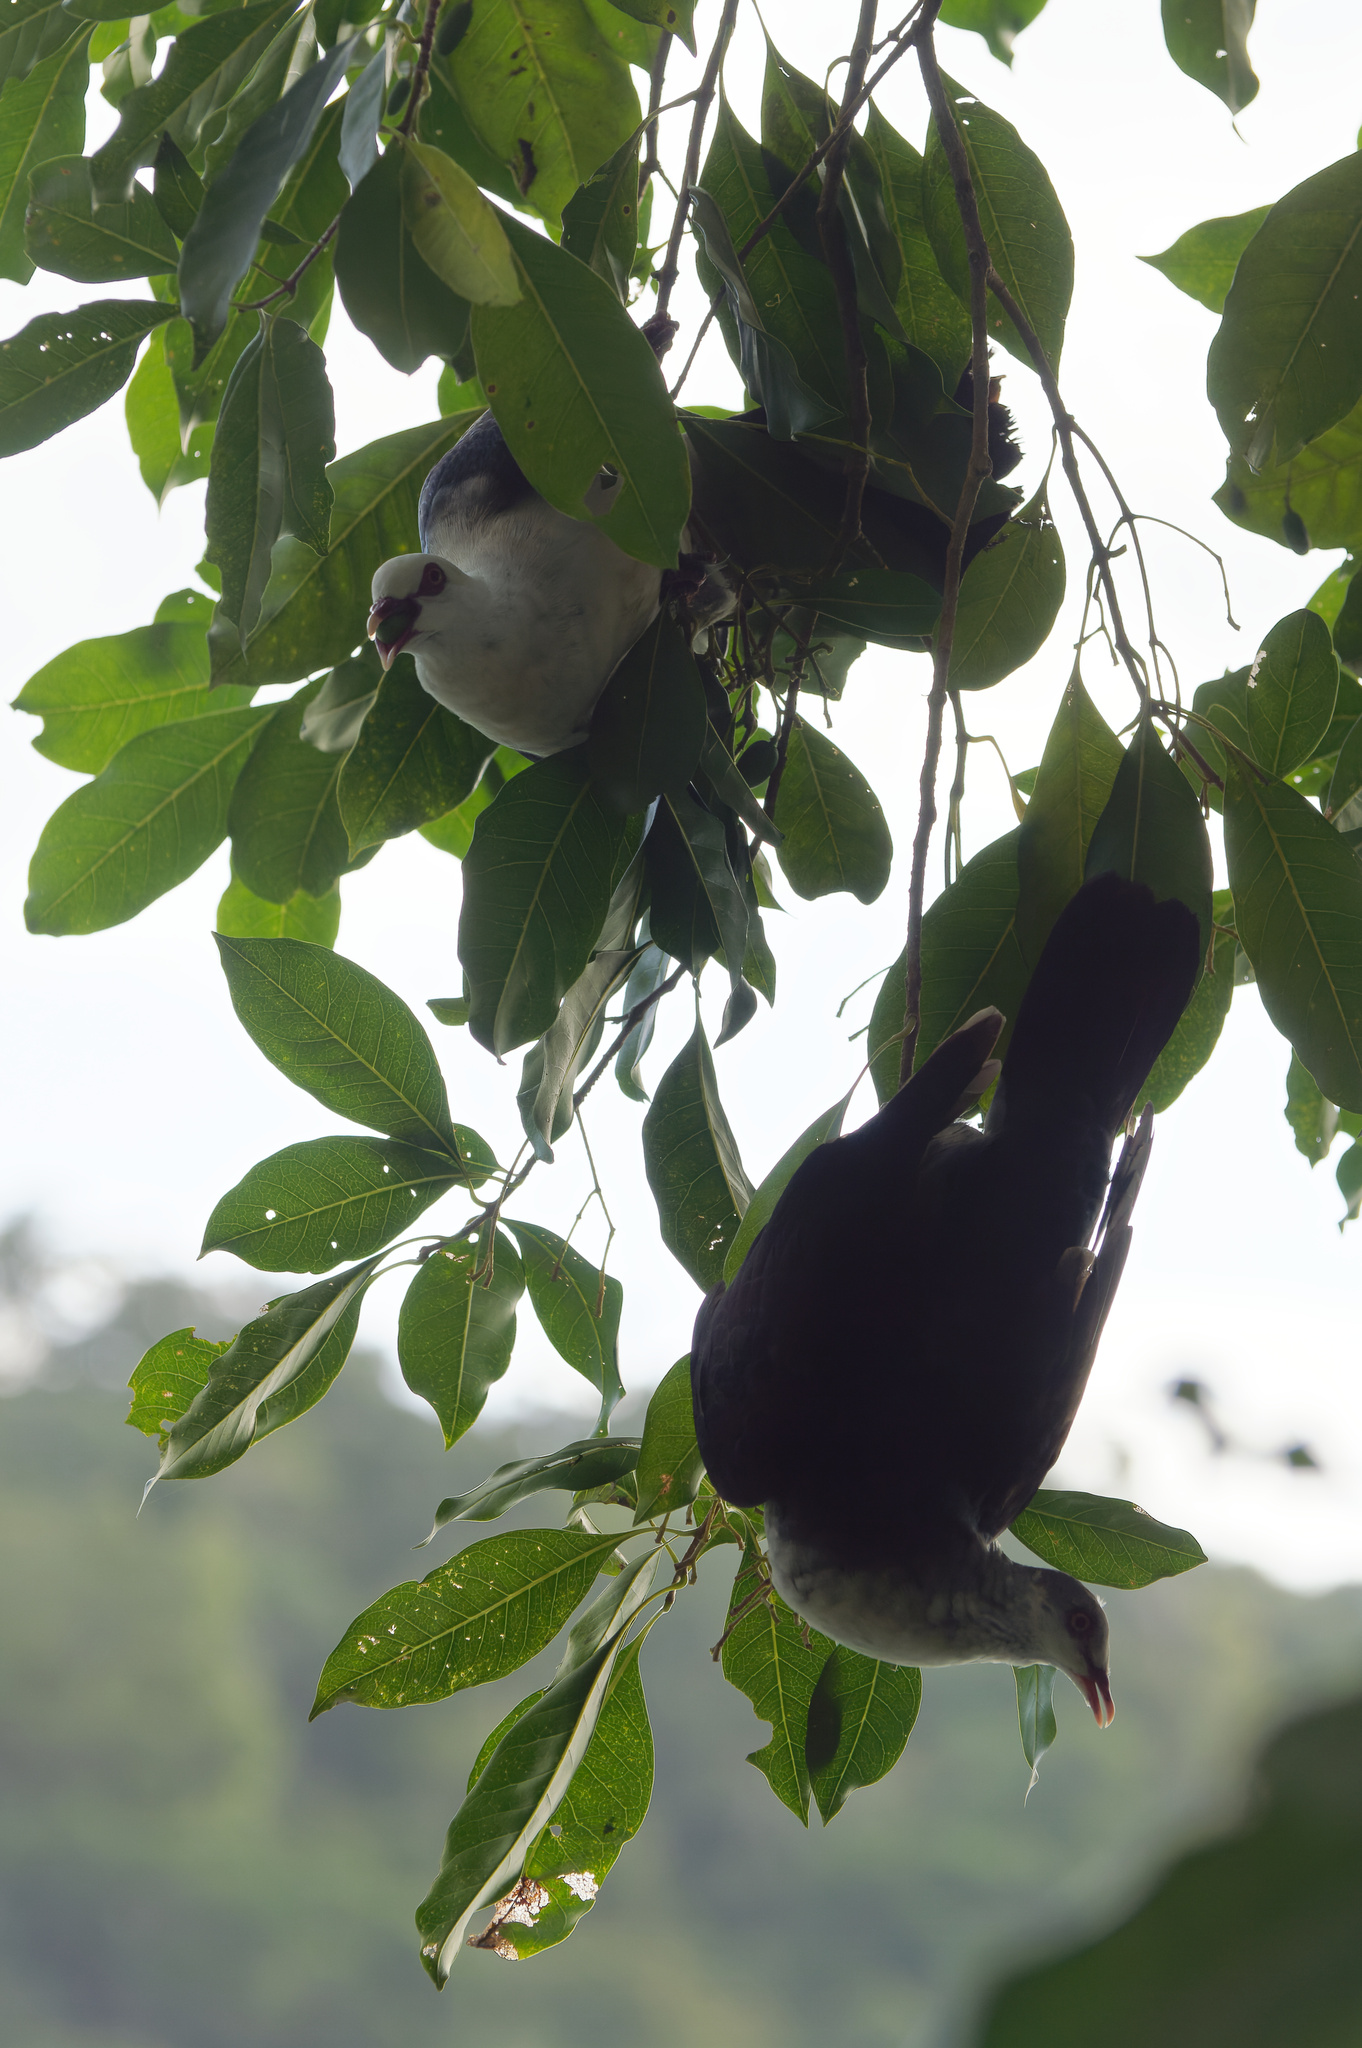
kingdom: Animalia
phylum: Chordata
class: Aves
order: Columbiformes
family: Columbidae
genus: Columba
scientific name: Columba leucomela
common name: White-headed pigeon
